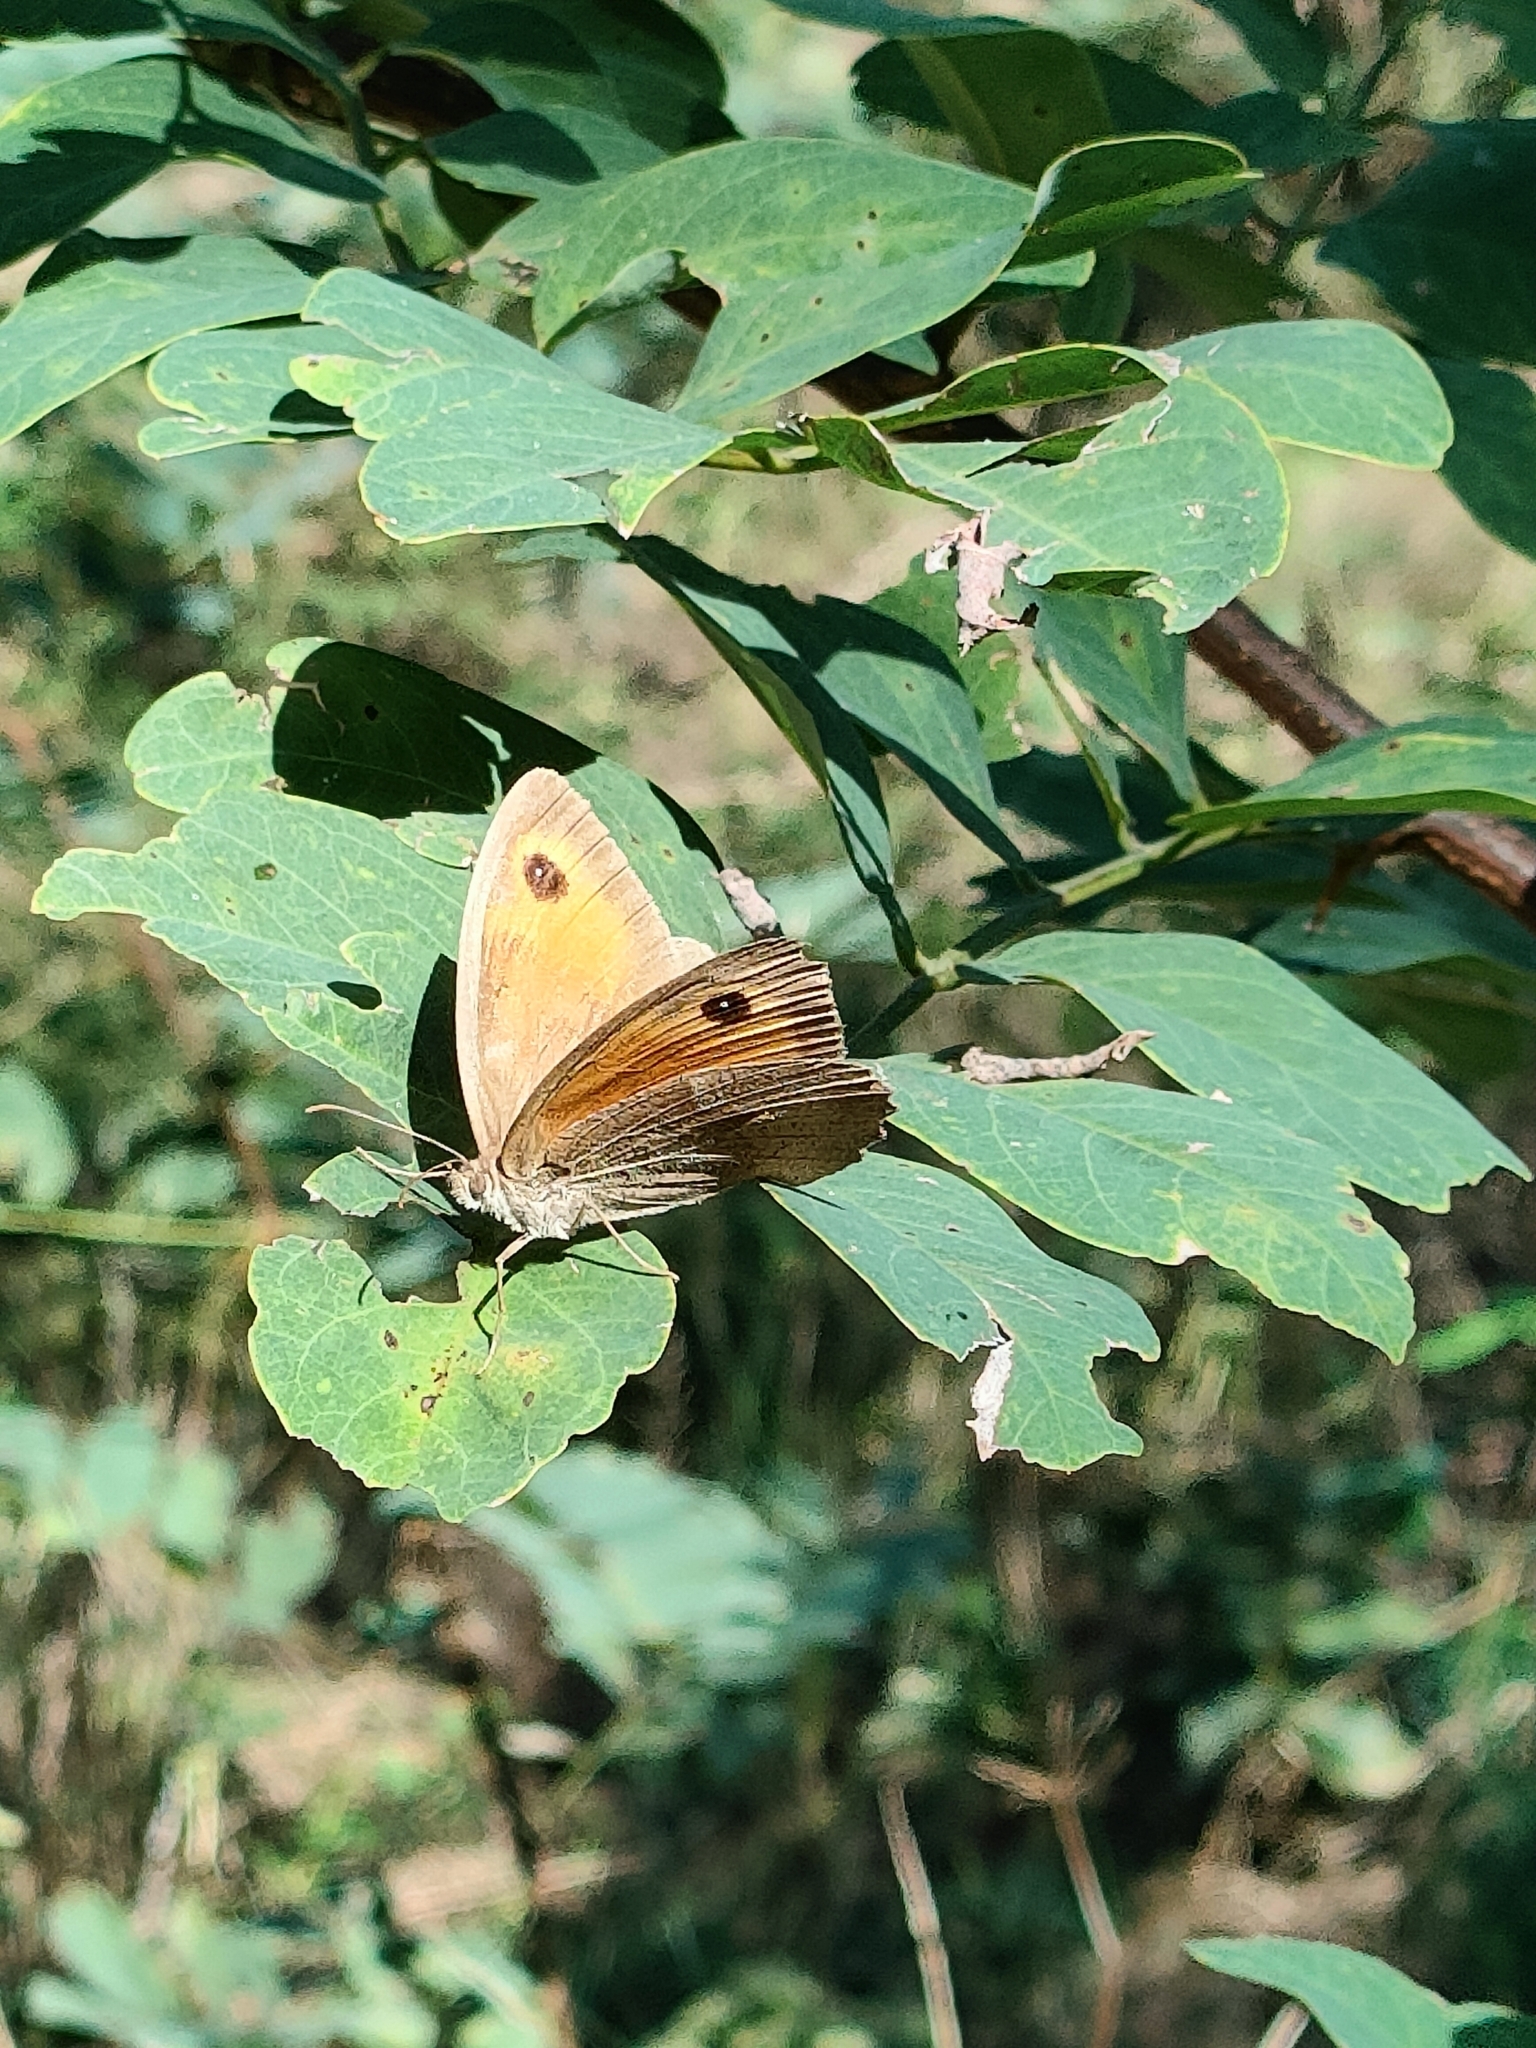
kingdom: Animalia
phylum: Arthropoda
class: Insecta
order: Lepidoptera
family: Nymphalidae
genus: Maniola
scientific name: Maniola jurtina
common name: Meadow brown
